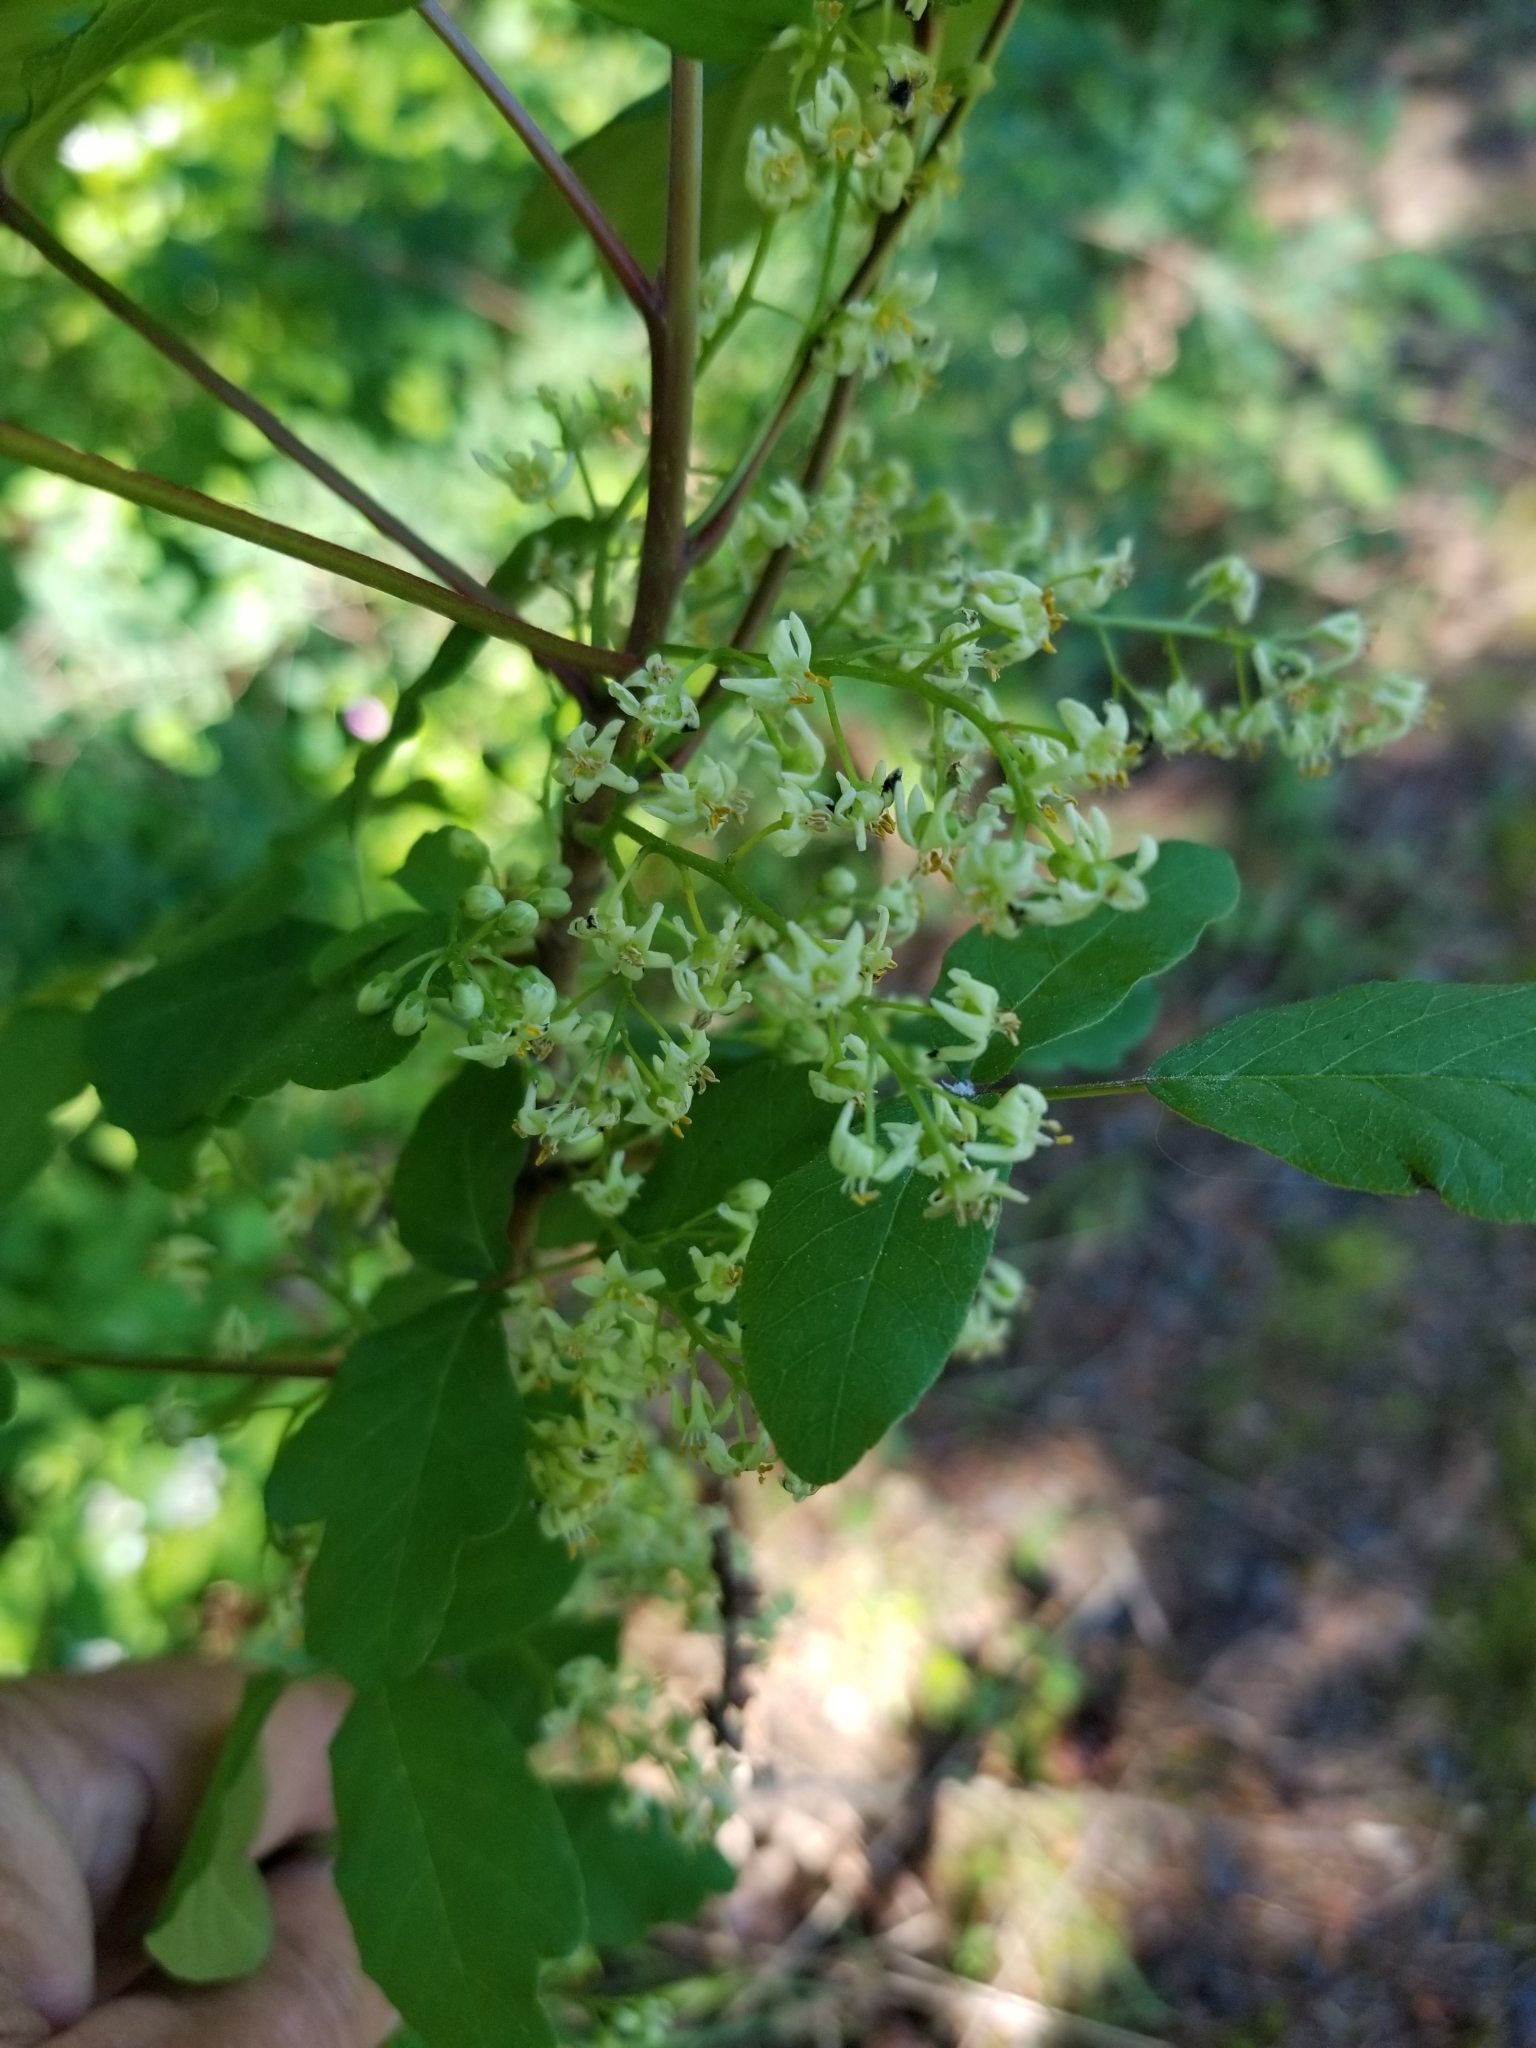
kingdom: Plantae
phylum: Tracheophyta
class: Magnoliopsida
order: Sapindales
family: Anacardiaceae
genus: Toxicodendron
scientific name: Toxicodendron diversilobum
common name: Pacific poison-oak
